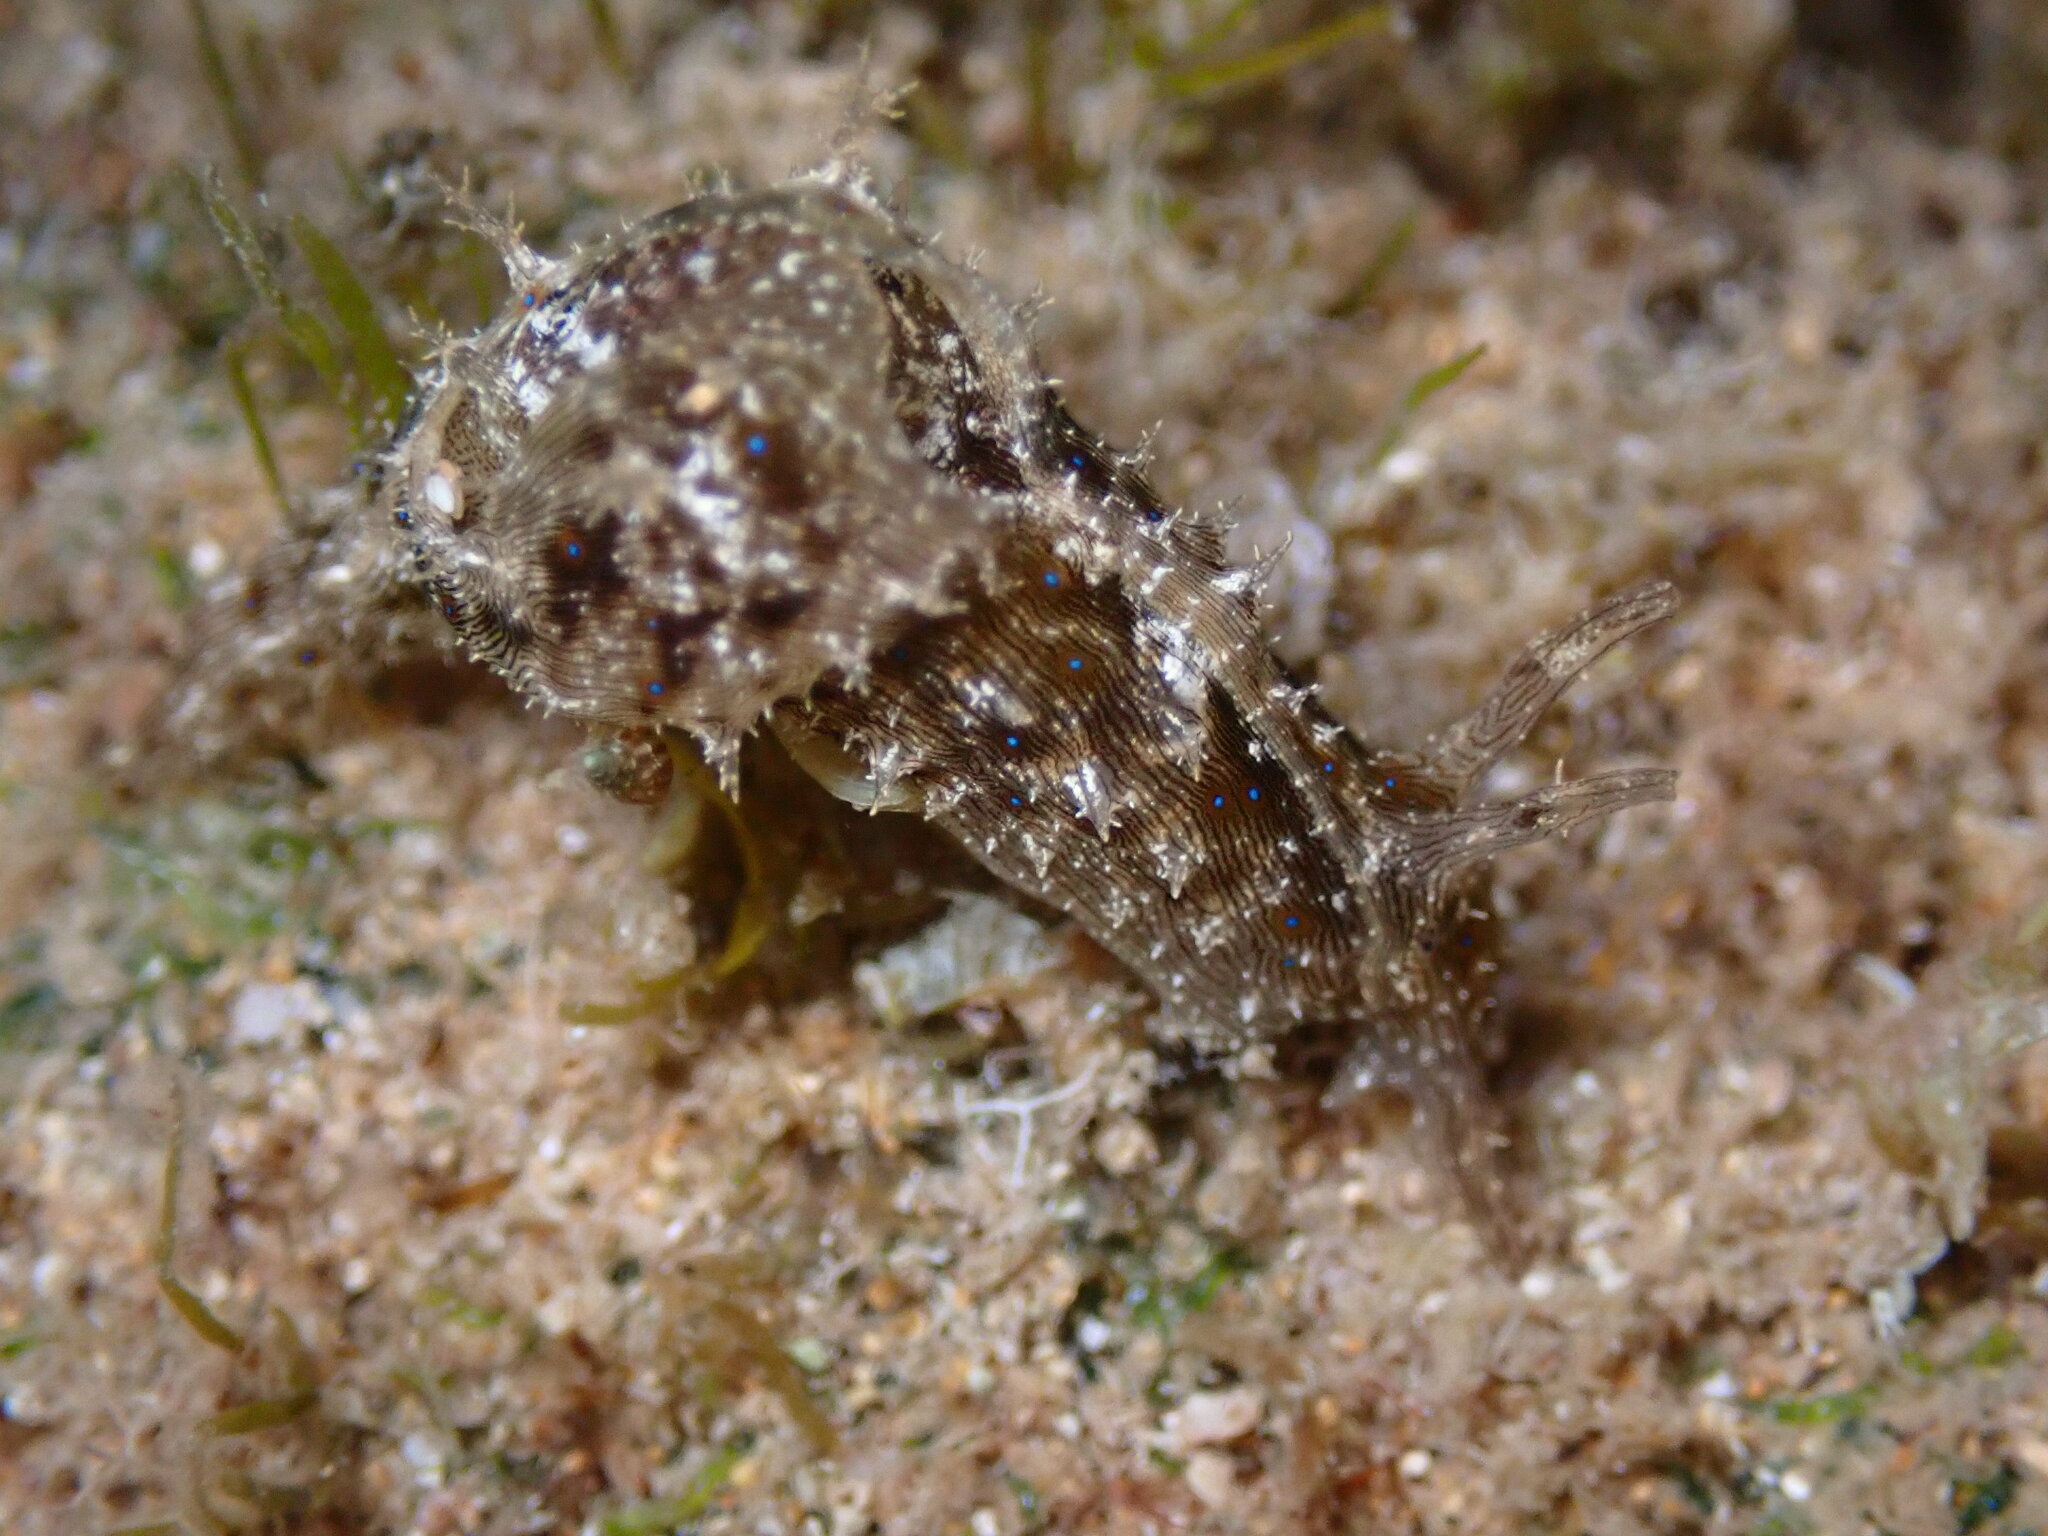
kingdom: Animalia
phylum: Mollusca
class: Gastropoda
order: Aplysiida
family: Aplysiidae
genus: Stylocheilus
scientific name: Stylocheilus striatus
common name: Striated seahare
